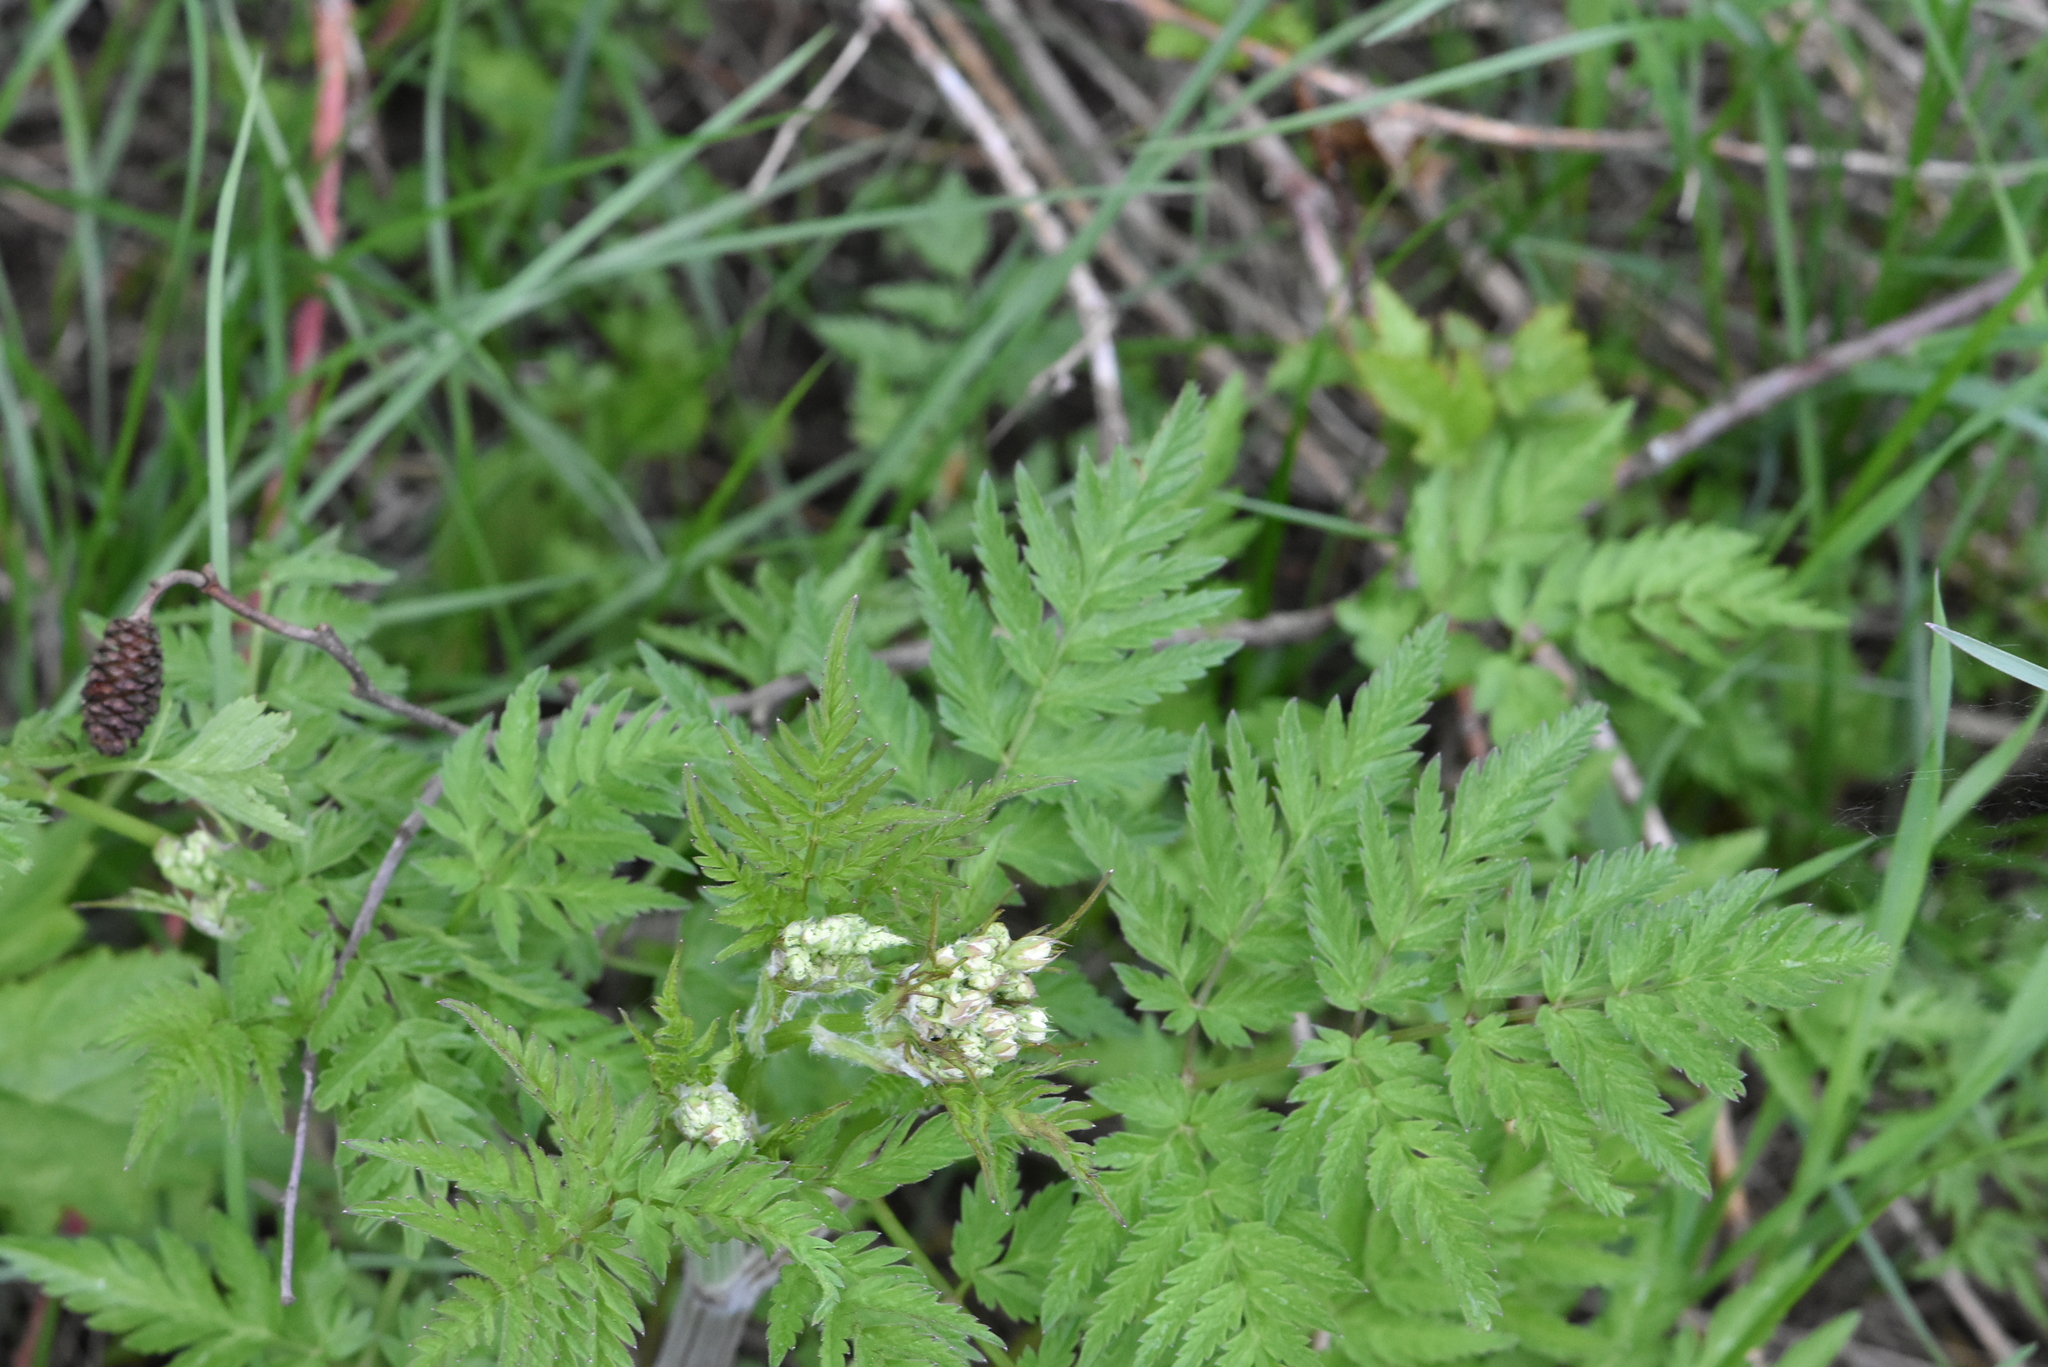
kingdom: Plantae
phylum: Tracheophyta
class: Magnoliopsida
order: Apiales
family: Apiaceae
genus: Anthriscus
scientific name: Anthriscus sylvestris
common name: Cow parsley
